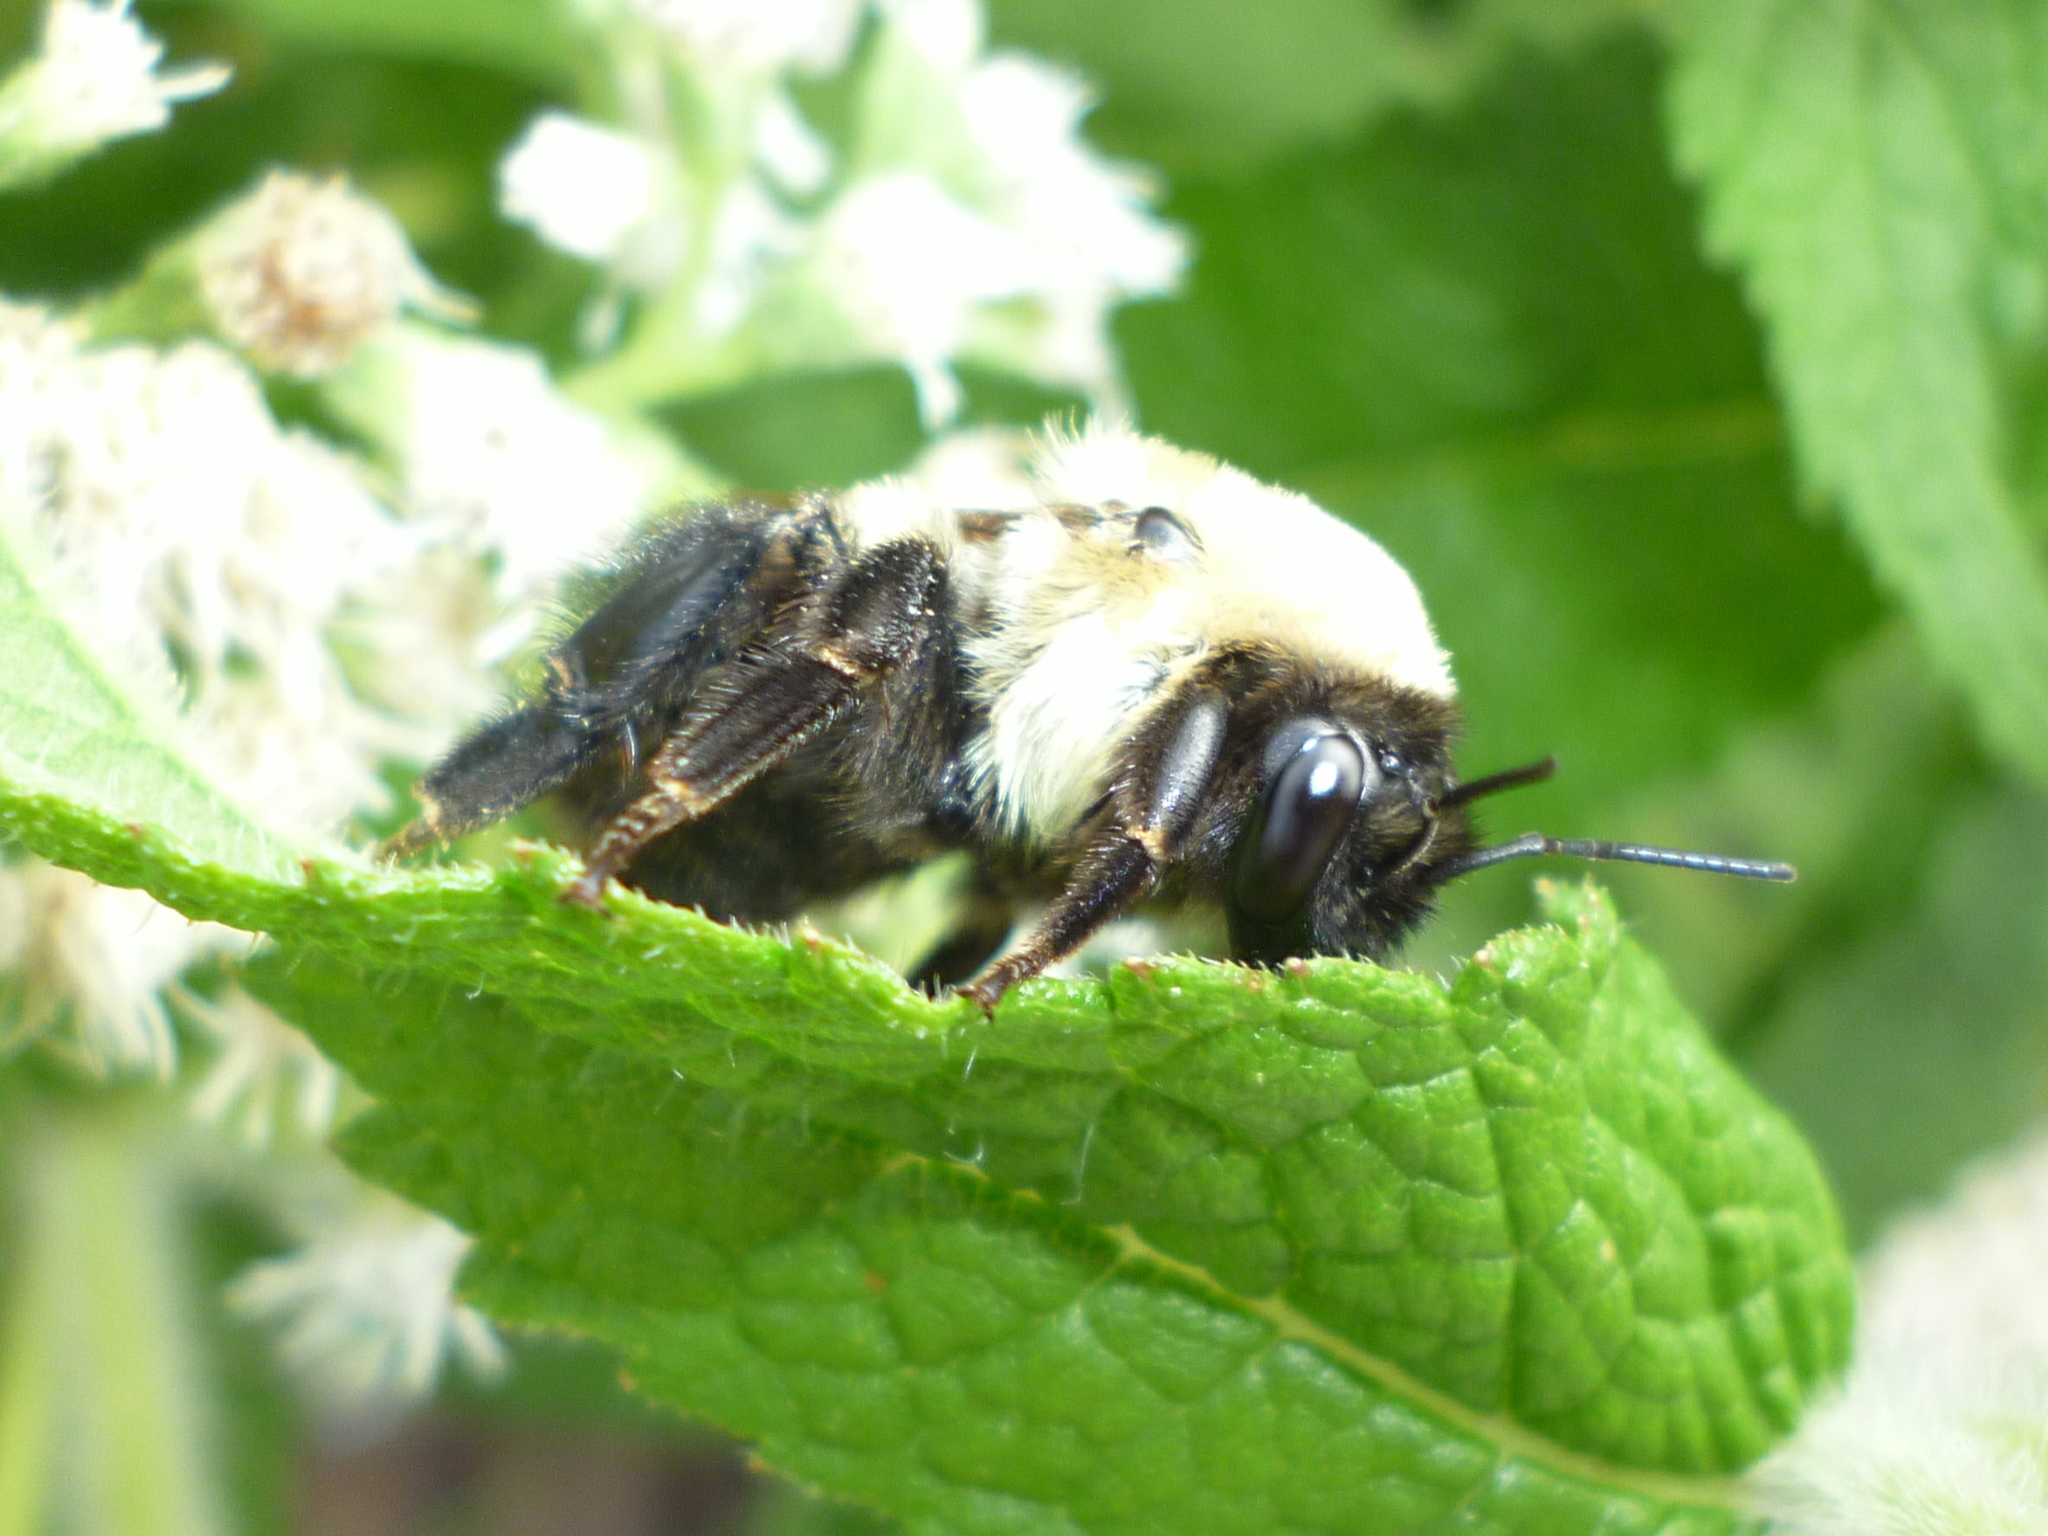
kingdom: Animalia
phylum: Arthropoda
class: Insecta
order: Hymenoptera
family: Apidae
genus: Bombus
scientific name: Bombus griseocollis
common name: Brown-belted bumble bee
